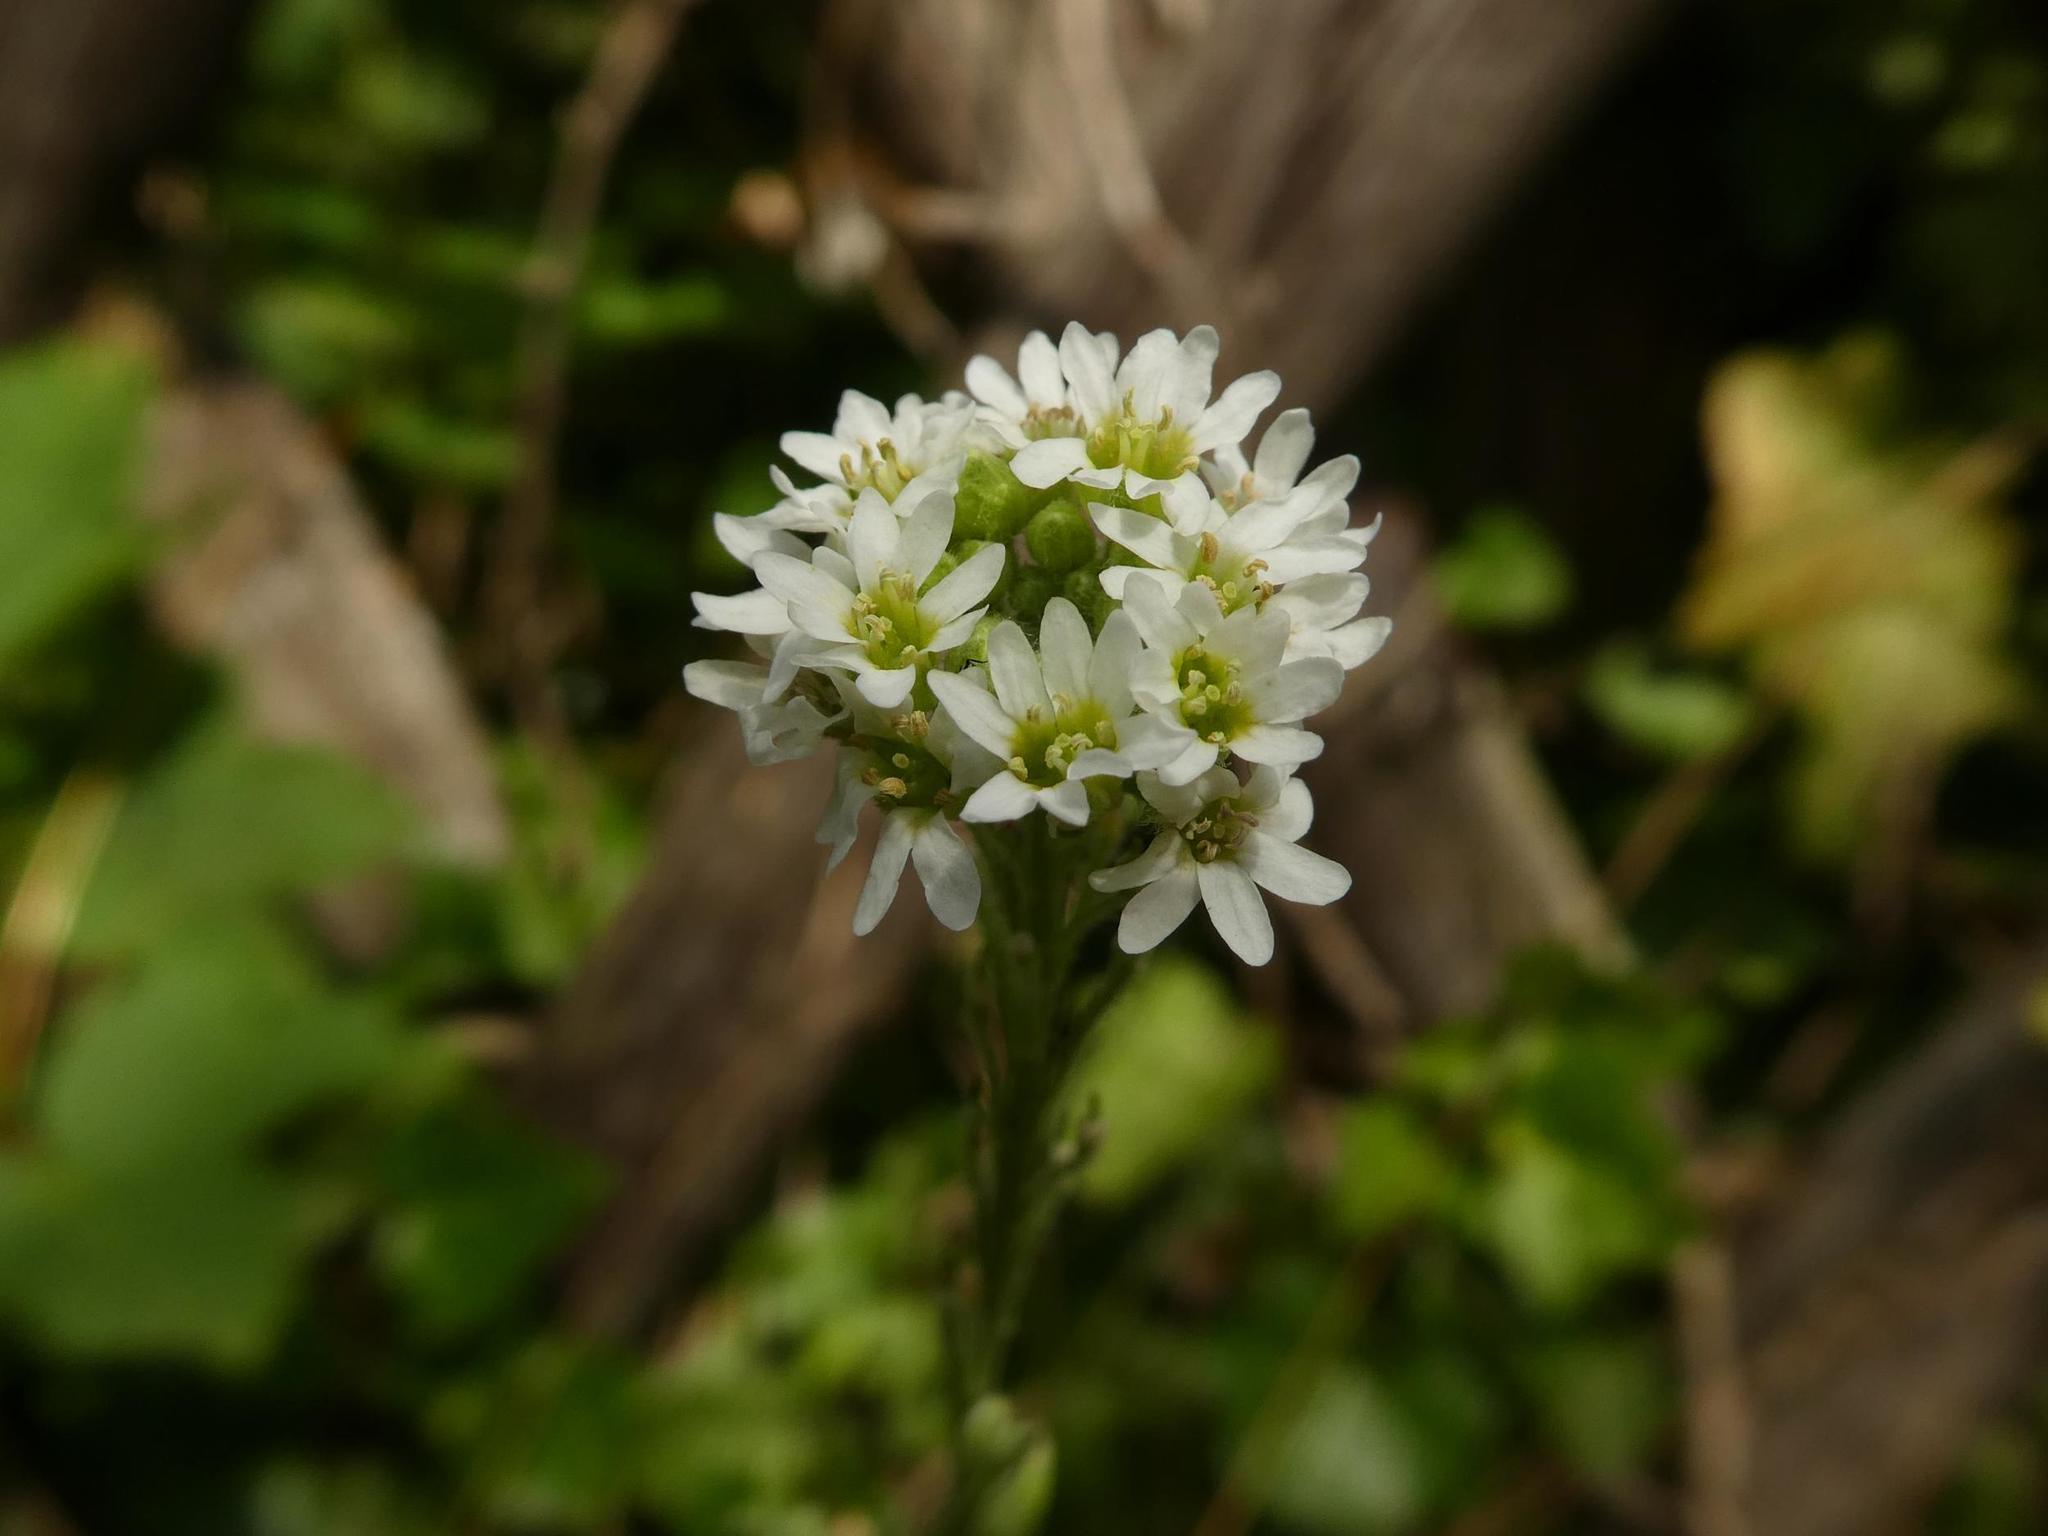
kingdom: Plantae
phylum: Tracheophyta
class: Magnoliopsida
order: Brassicales
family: Brassicaceae
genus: Berteroa
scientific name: Berteroa incana
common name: Hoary alison
